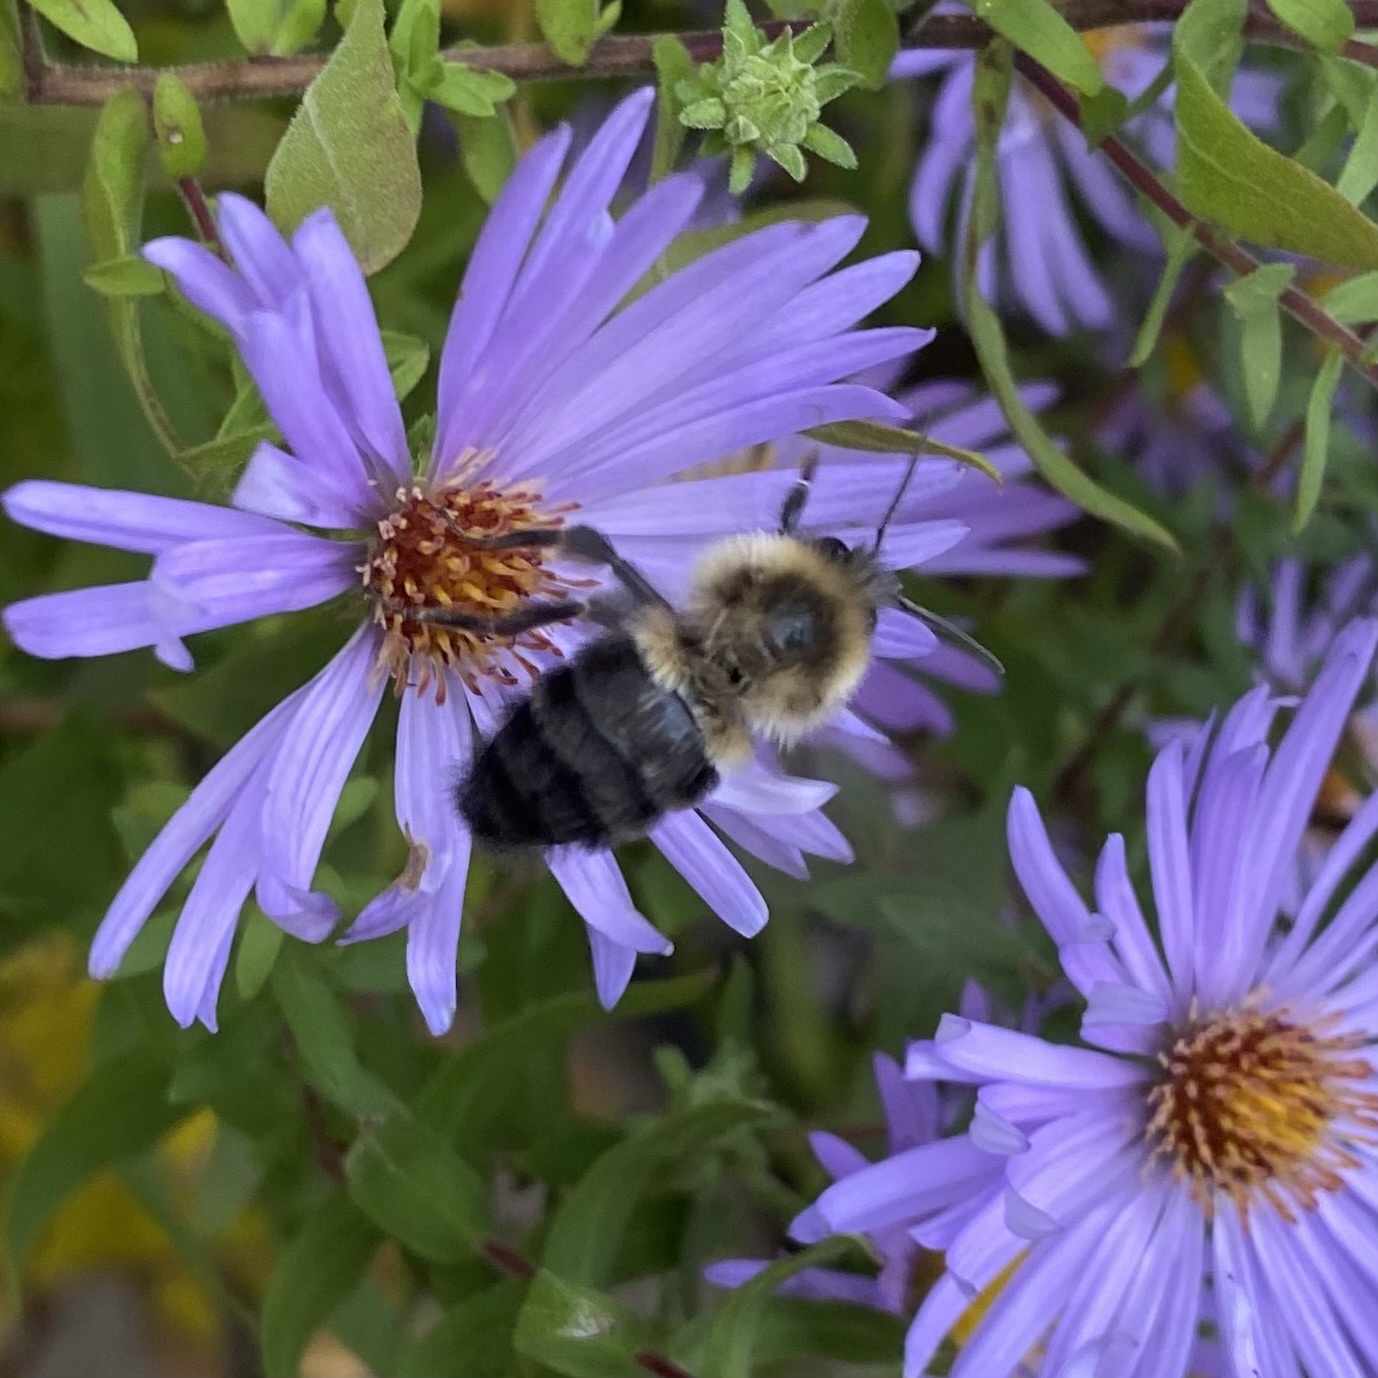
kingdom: Animalia
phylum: Arthropoda
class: Insecta
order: Hymenoptera
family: Apidae
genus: Bombus
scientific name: Bombus impatiens
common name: Common eastern bumble bee
